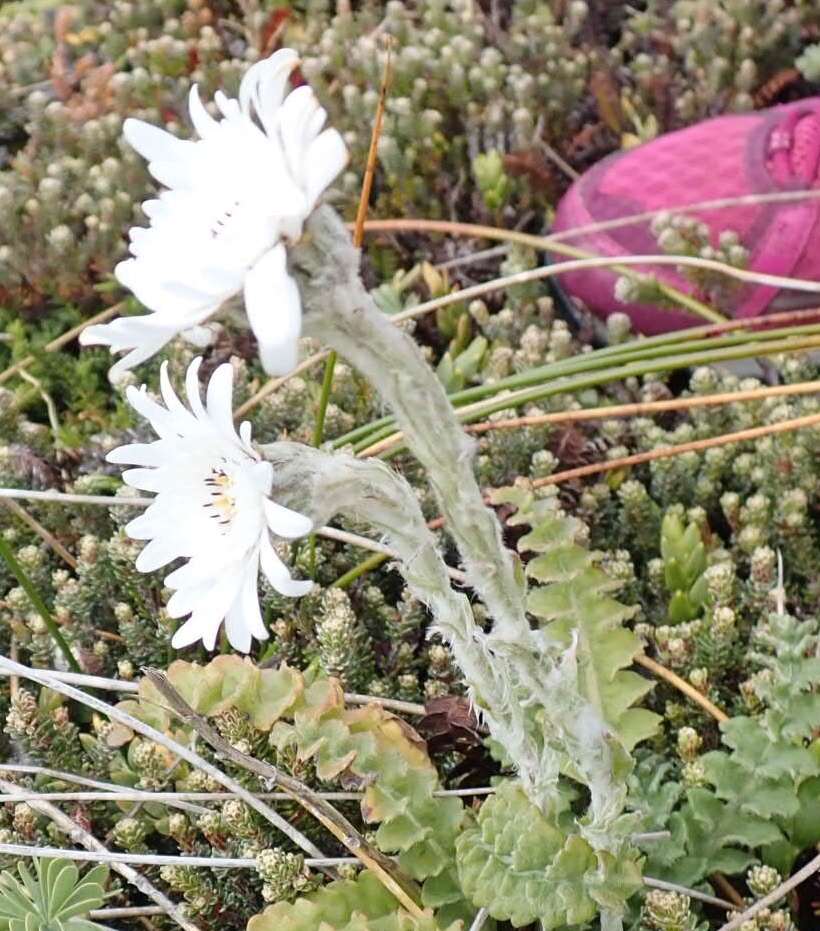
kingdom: Plantae
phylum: Tracheophyta
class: Magnoliopsida
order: Asterales
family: Asteraceae
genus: Leucheria
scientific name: Leucheria suaveolens
